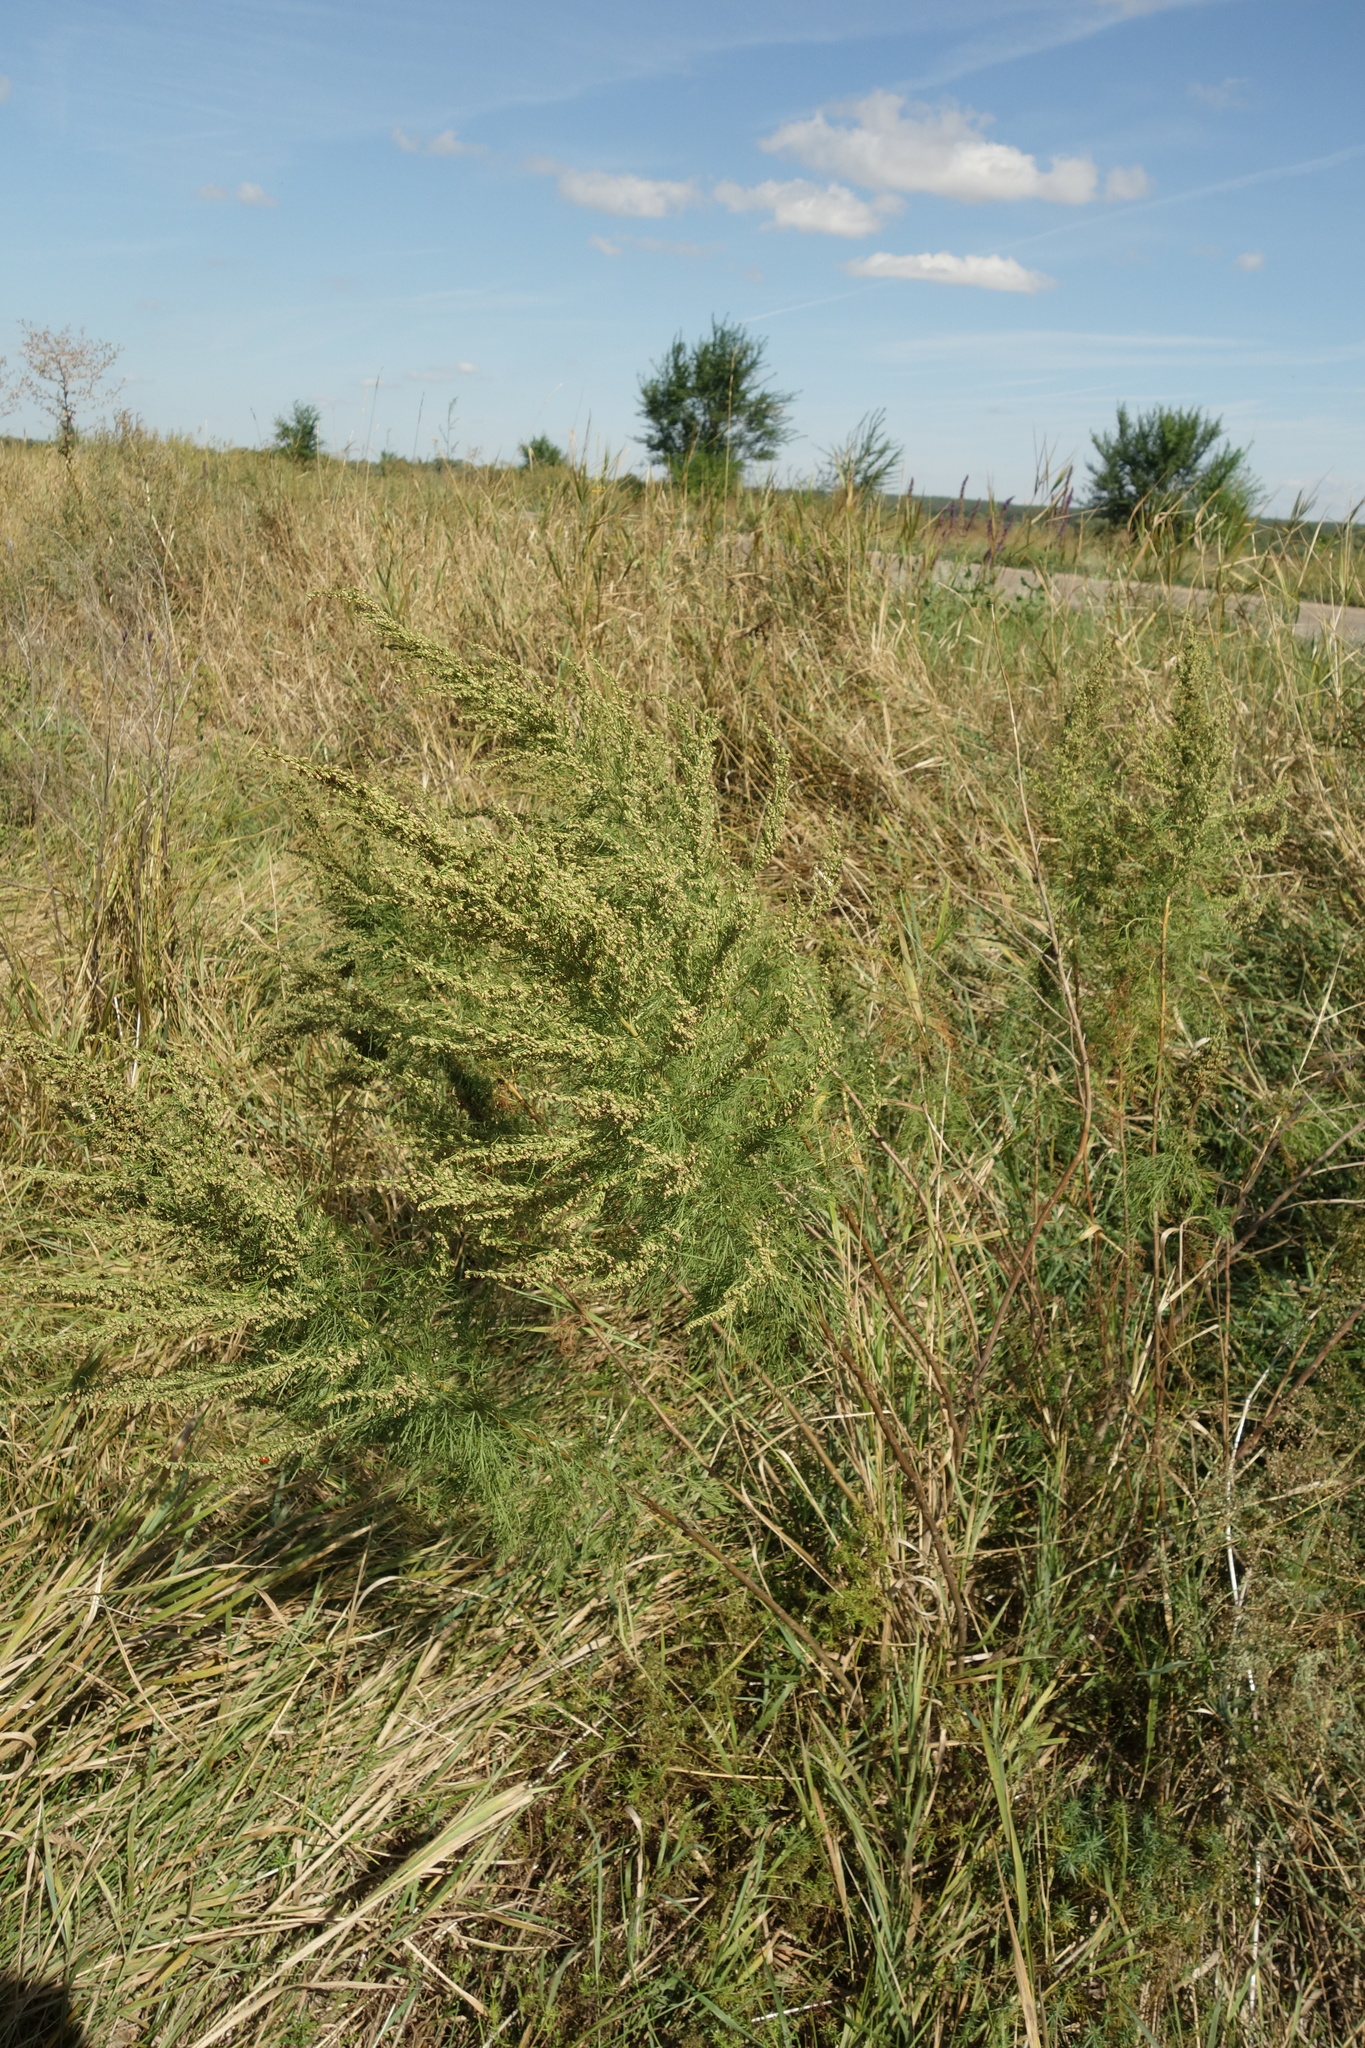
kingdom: Plantae
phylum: Tracheophyta
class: Magnoliopsida
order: Asterales
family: Asteraceae
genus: Artemisia
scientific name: Artemisia campestris
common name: Field wormwood
